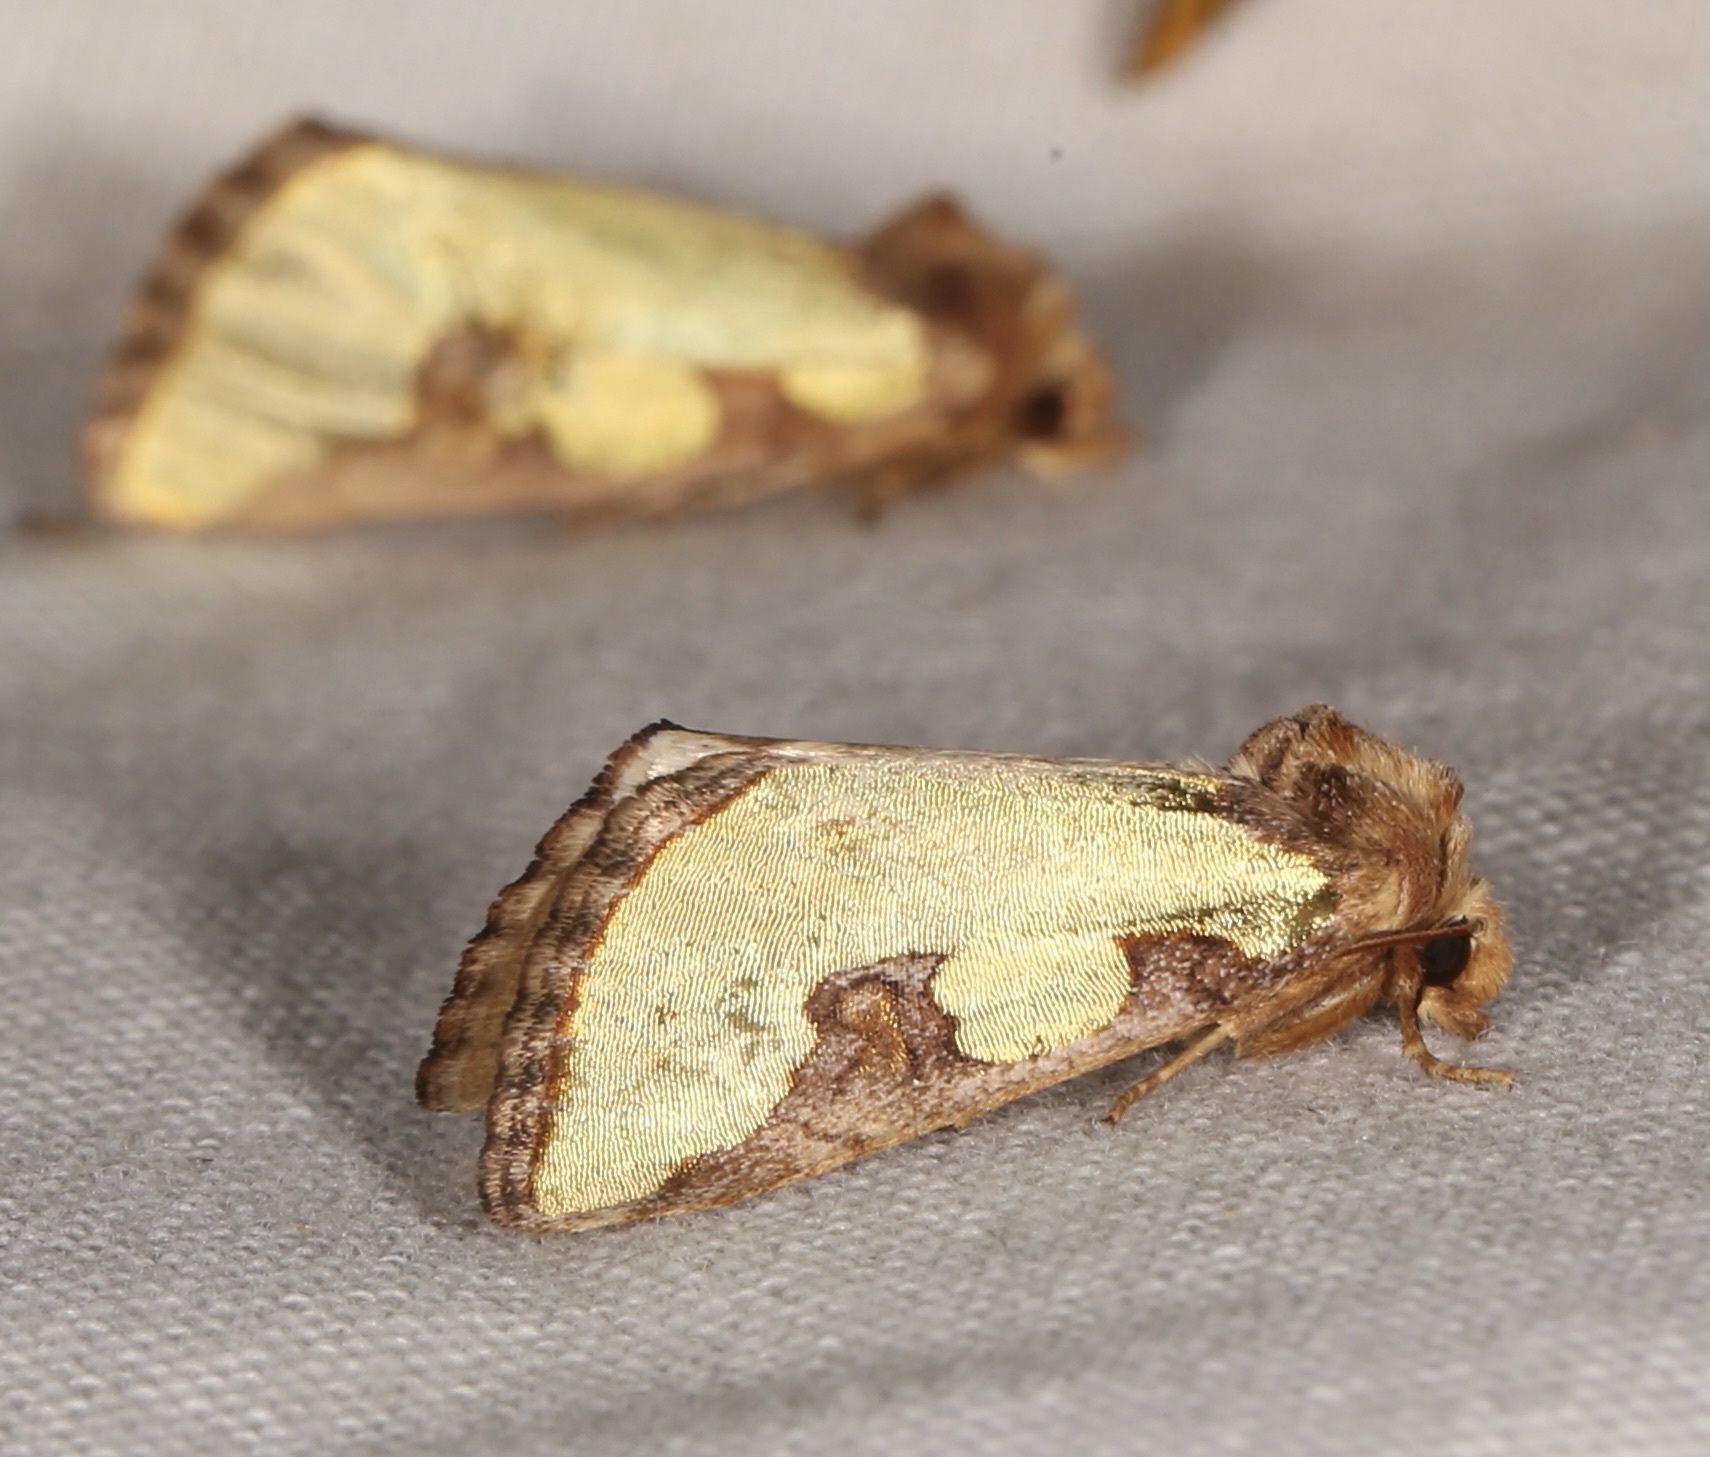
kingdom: Animalia
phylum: Arthropoda
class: Insecta
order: Lepidoptera
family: Noctuidae
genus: Chalcopasta
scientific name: Chalcopasta territans
